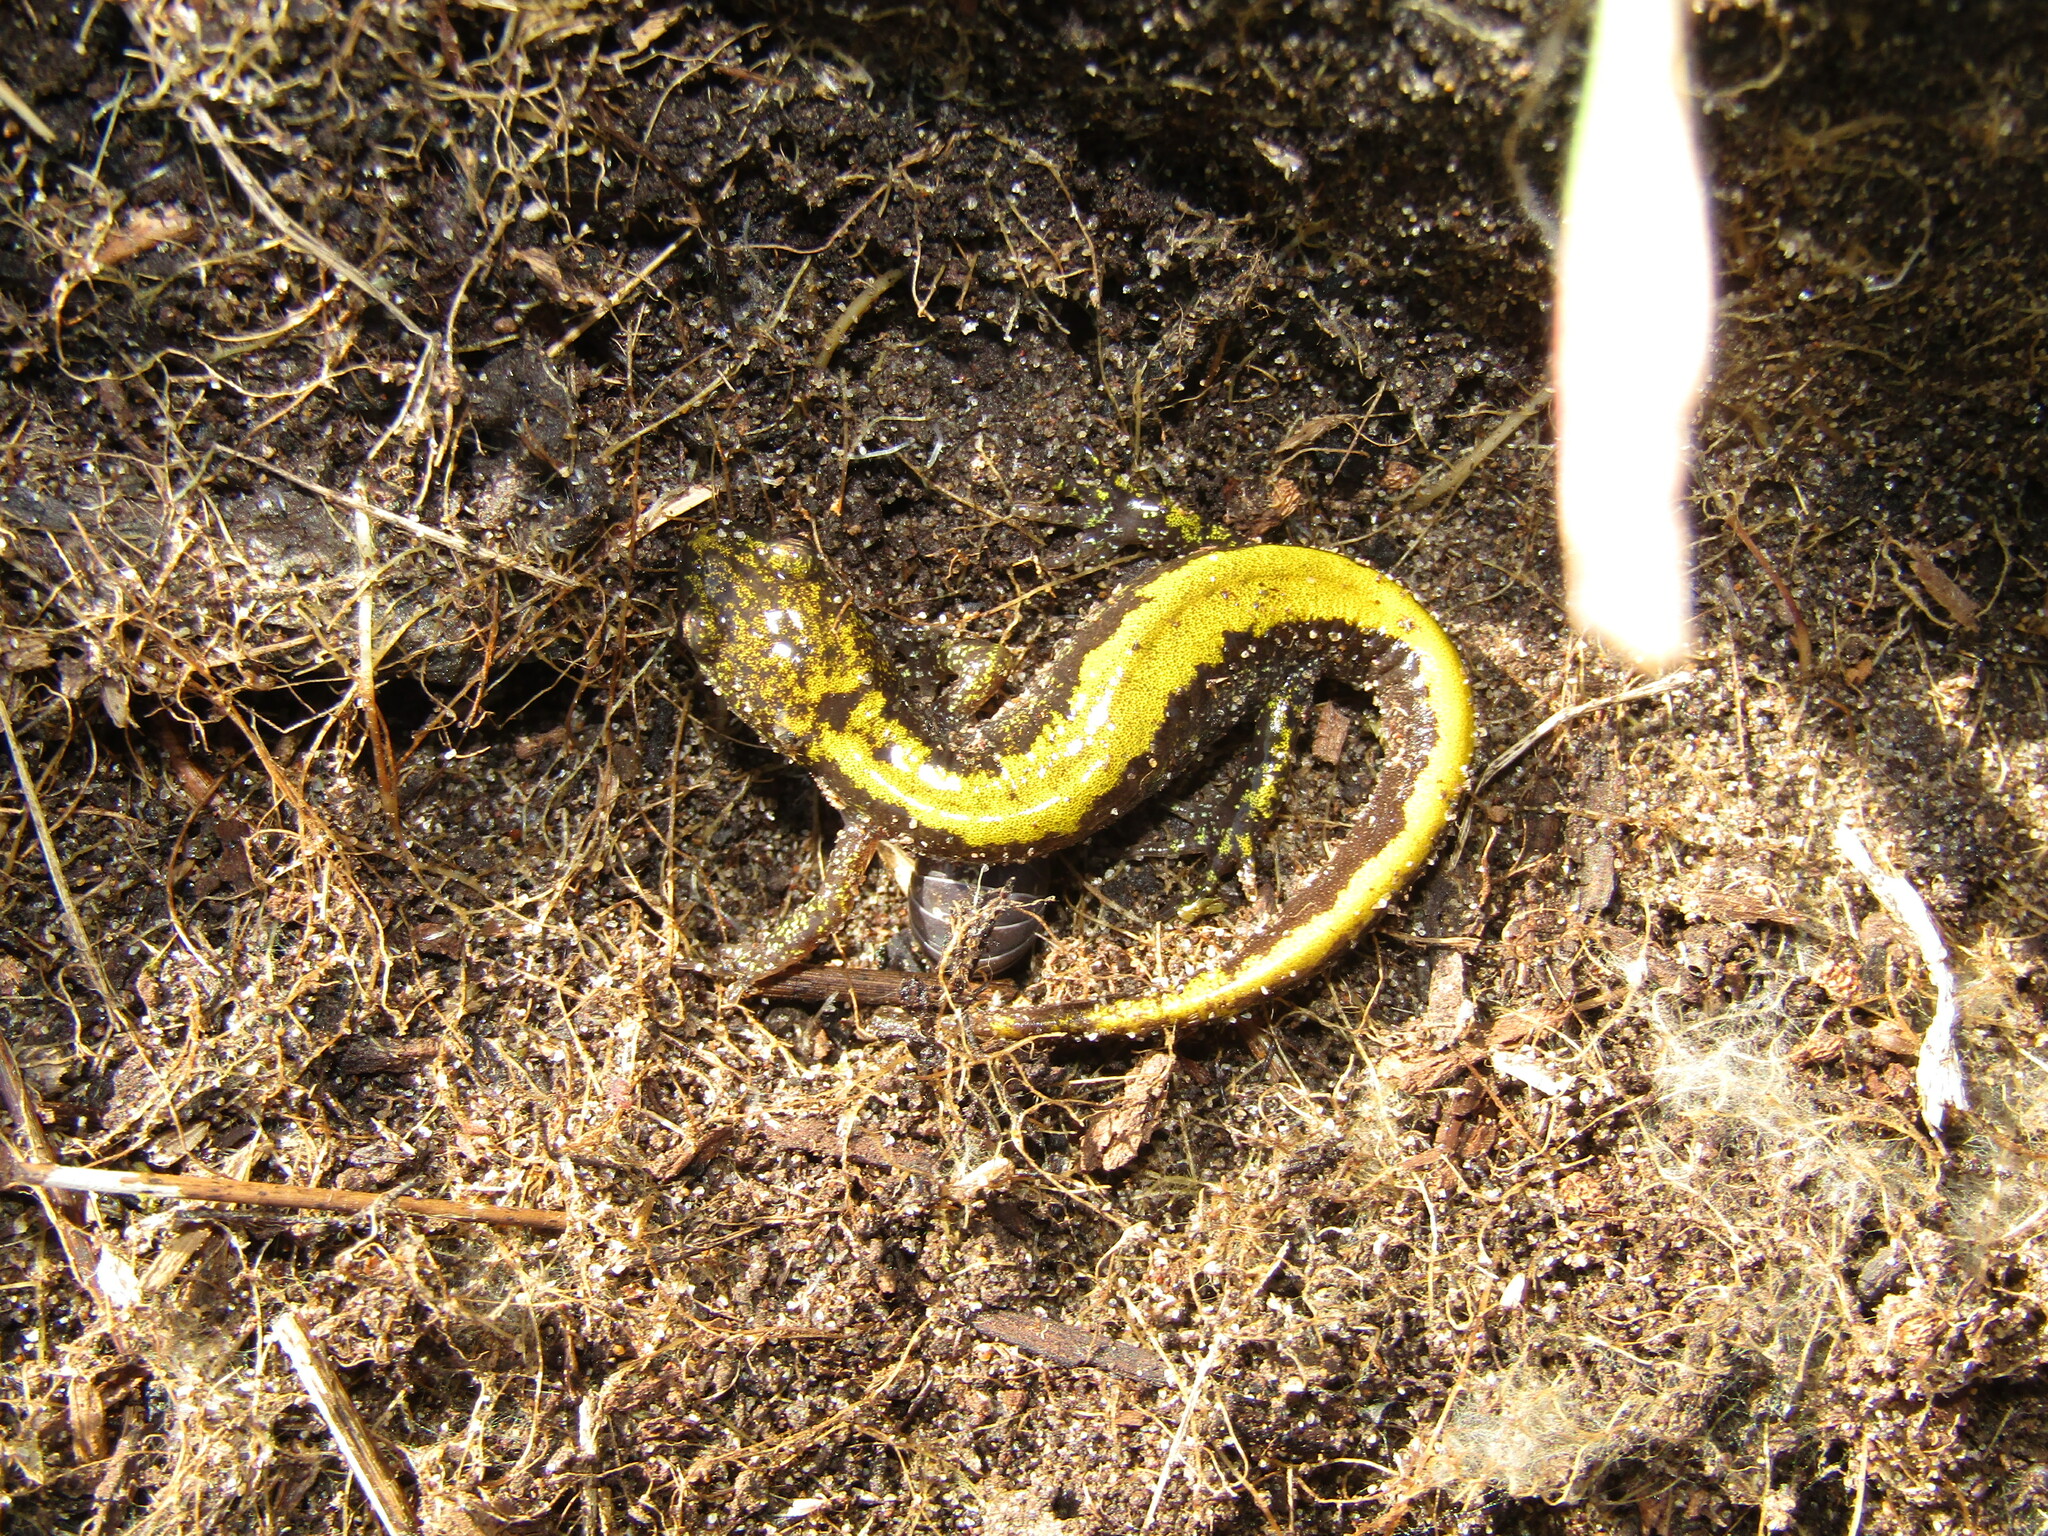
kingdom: Animalia
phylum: Chordata
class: Amphibia
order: Caudata
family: Ambystomatidae
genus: Ambystoma
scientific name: Ambystoma macrodactylum
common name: Long-toed salamander
